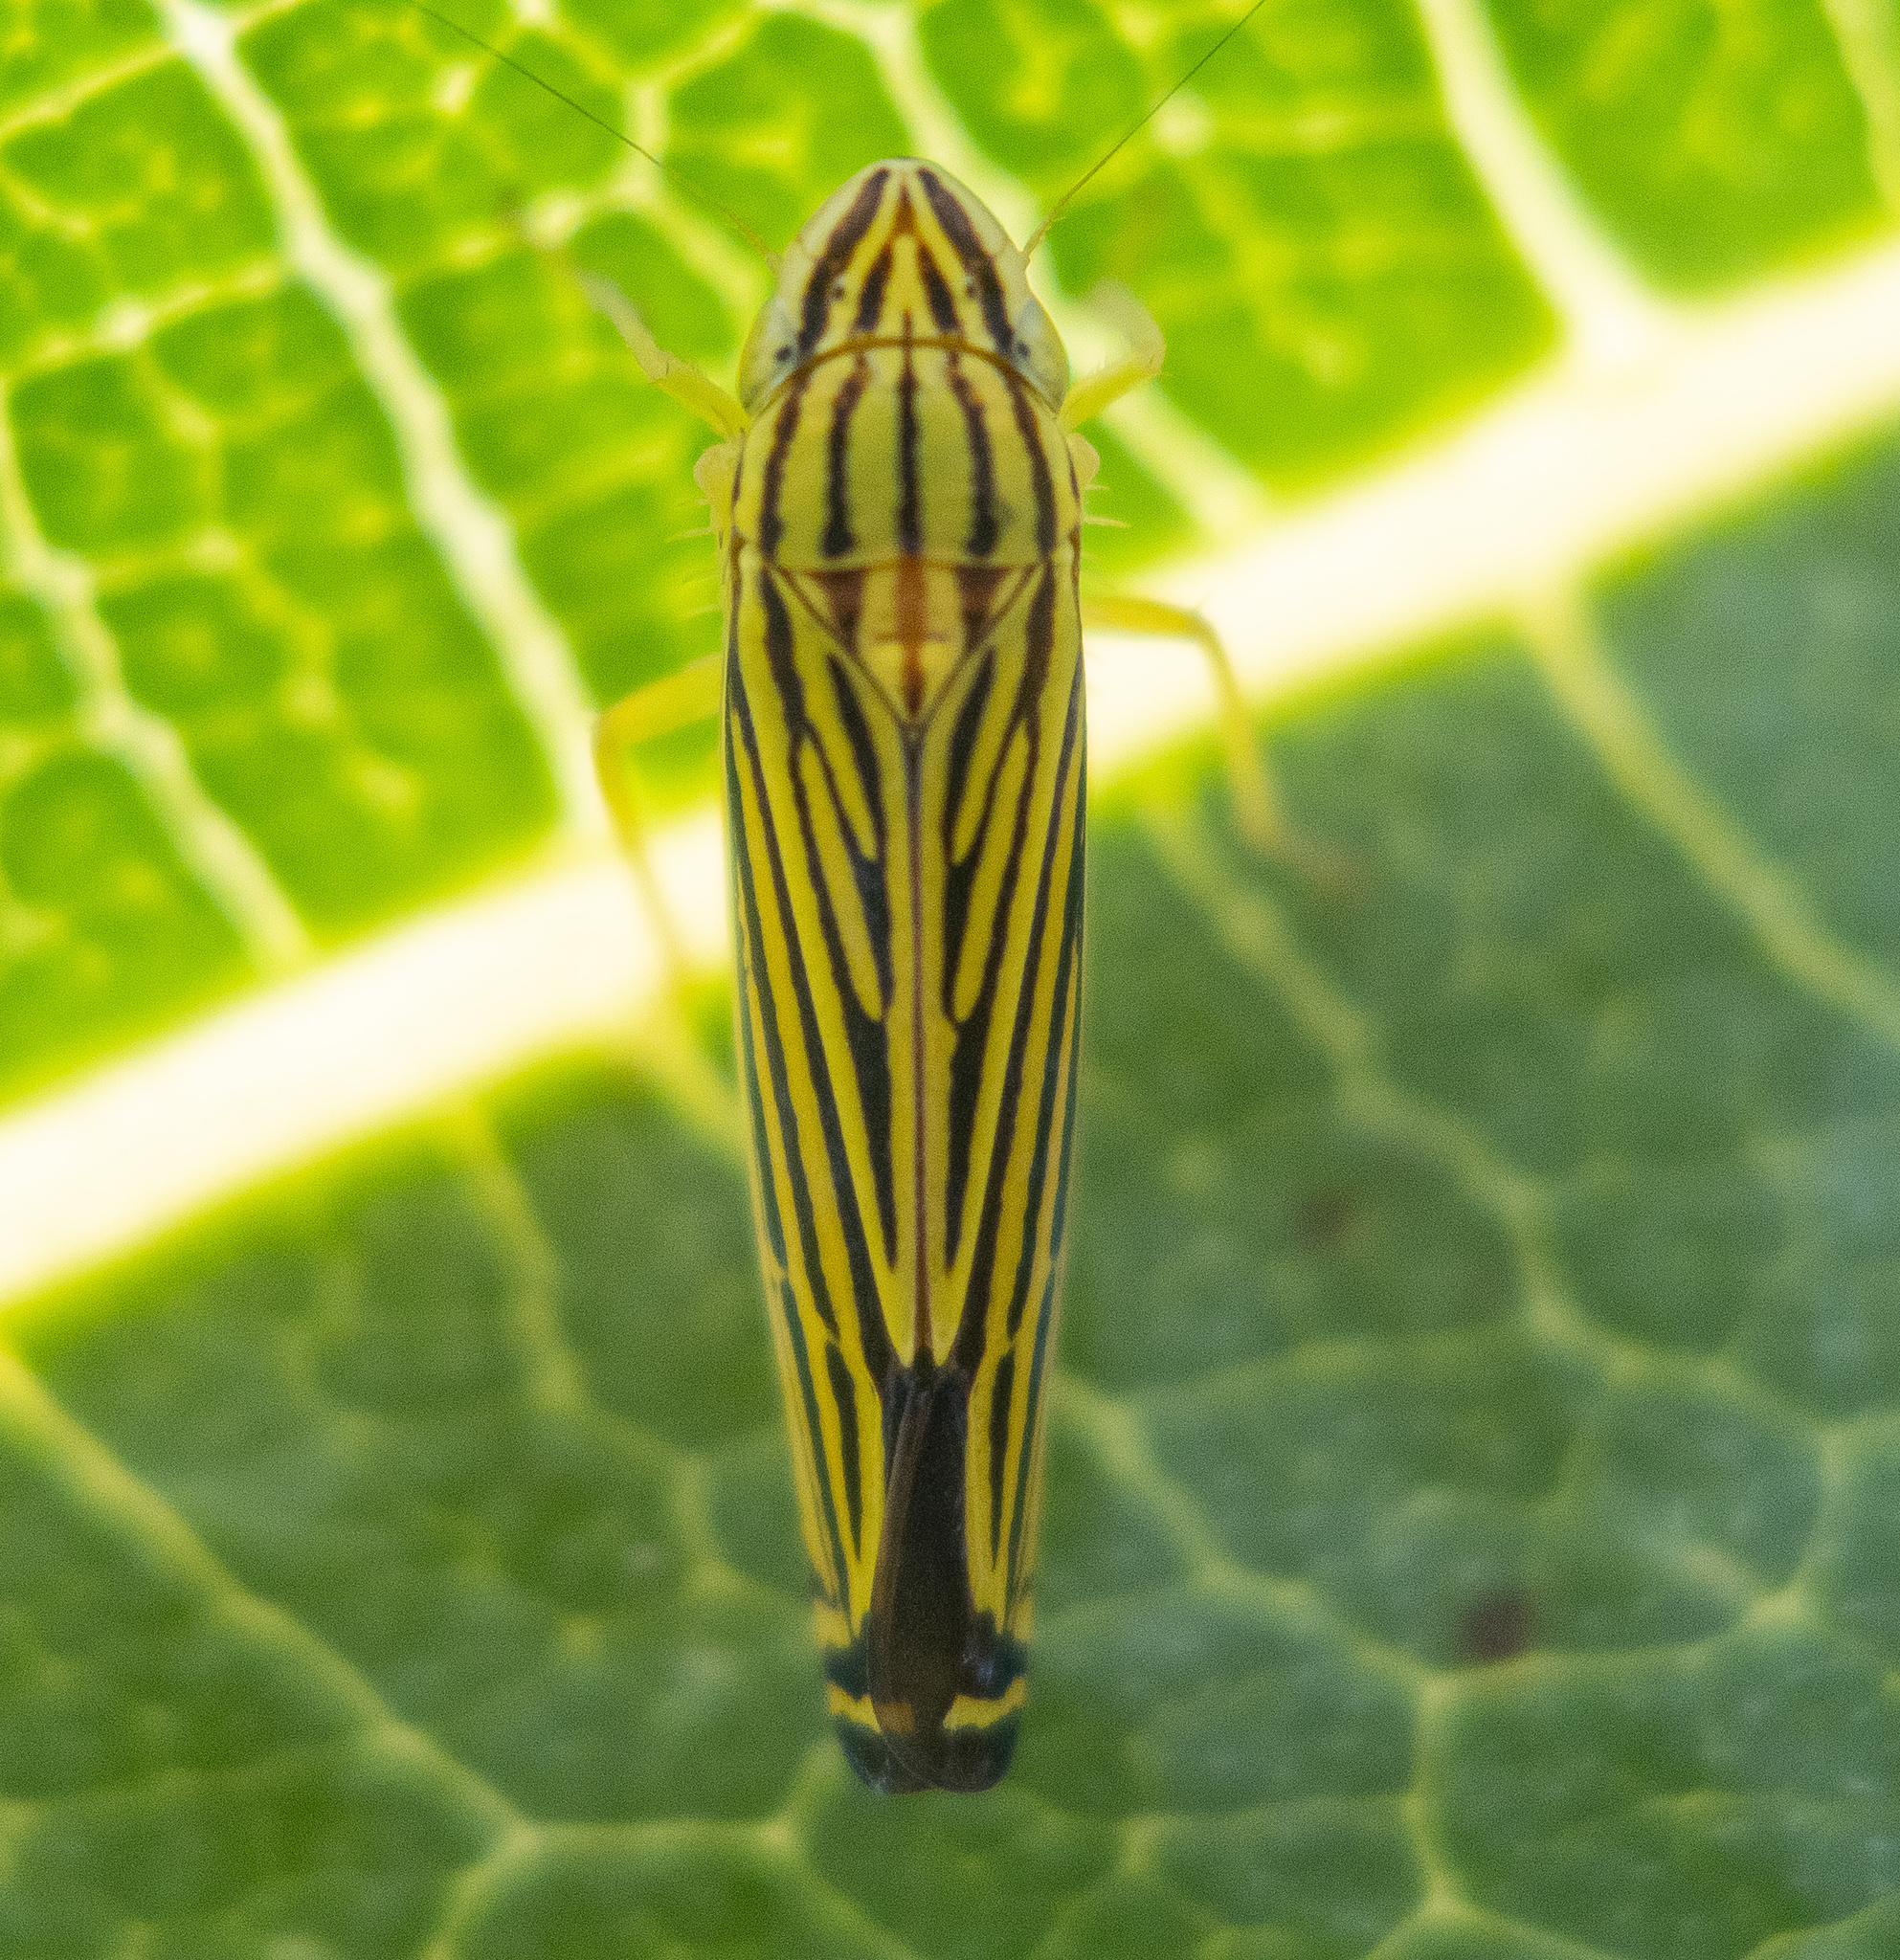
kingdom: Animalia
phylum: Arthropoda
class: Insecta
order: Hemiptera
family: Cicadellidae
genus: Sibovia
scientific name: Sibovia occatoria
